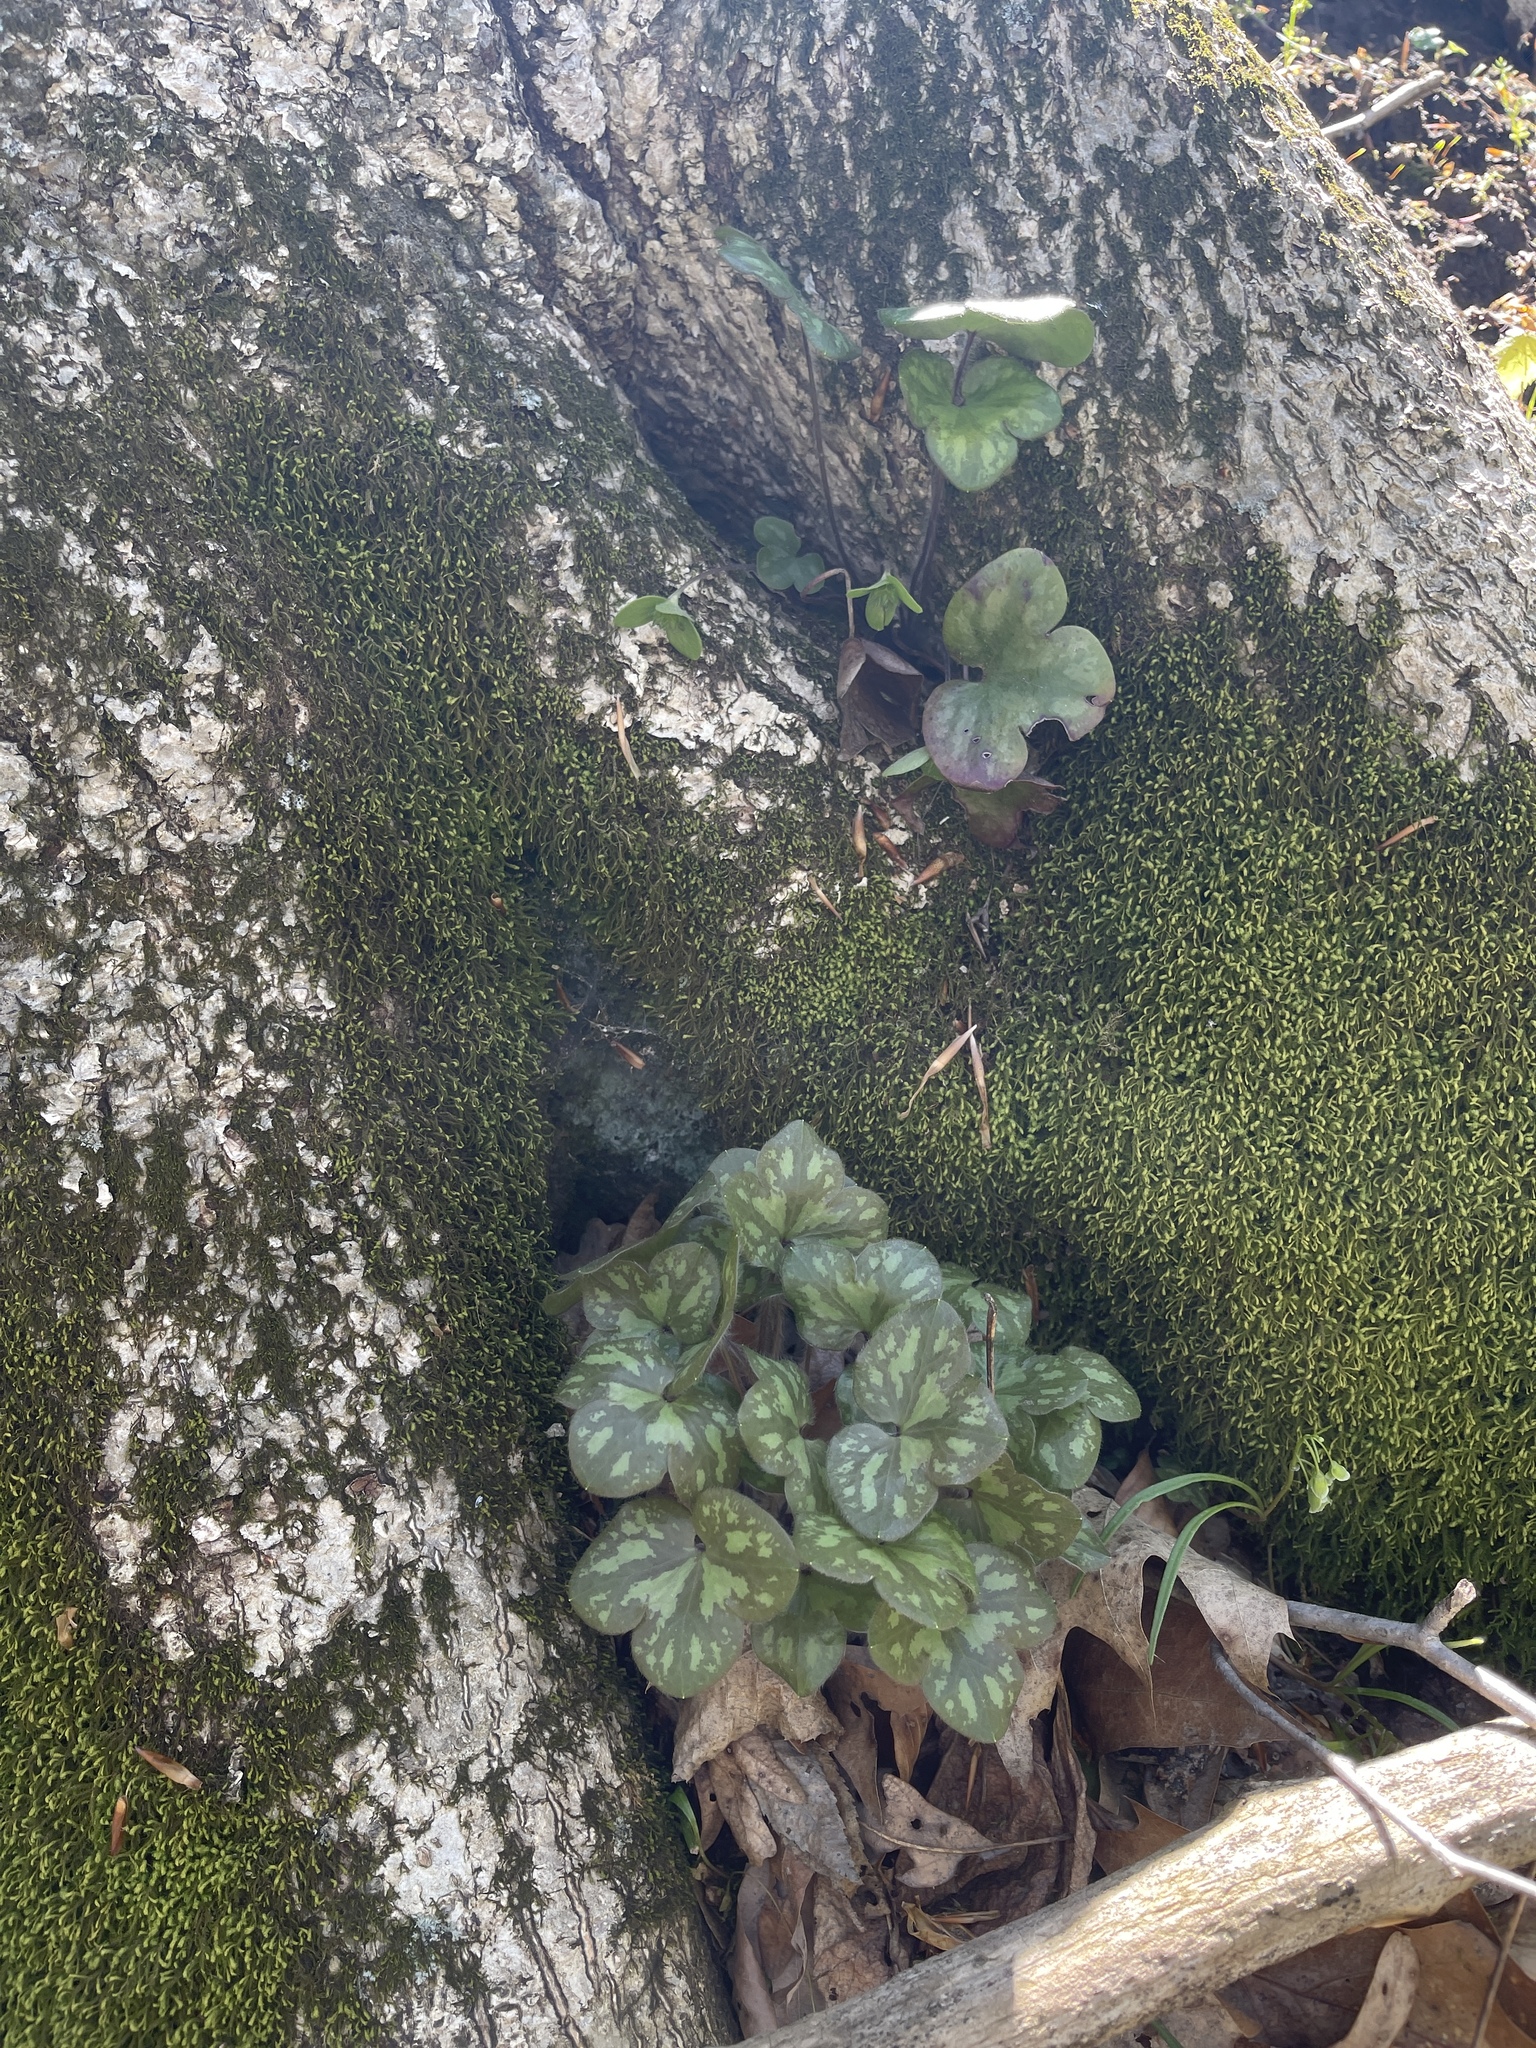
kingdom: Plantae
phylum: Tracheophyta
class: Magnoliopsida
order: Ranunculales
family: Ranunculaceae
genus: Hepatica
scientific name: Hepatica americana
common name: American hepatica
